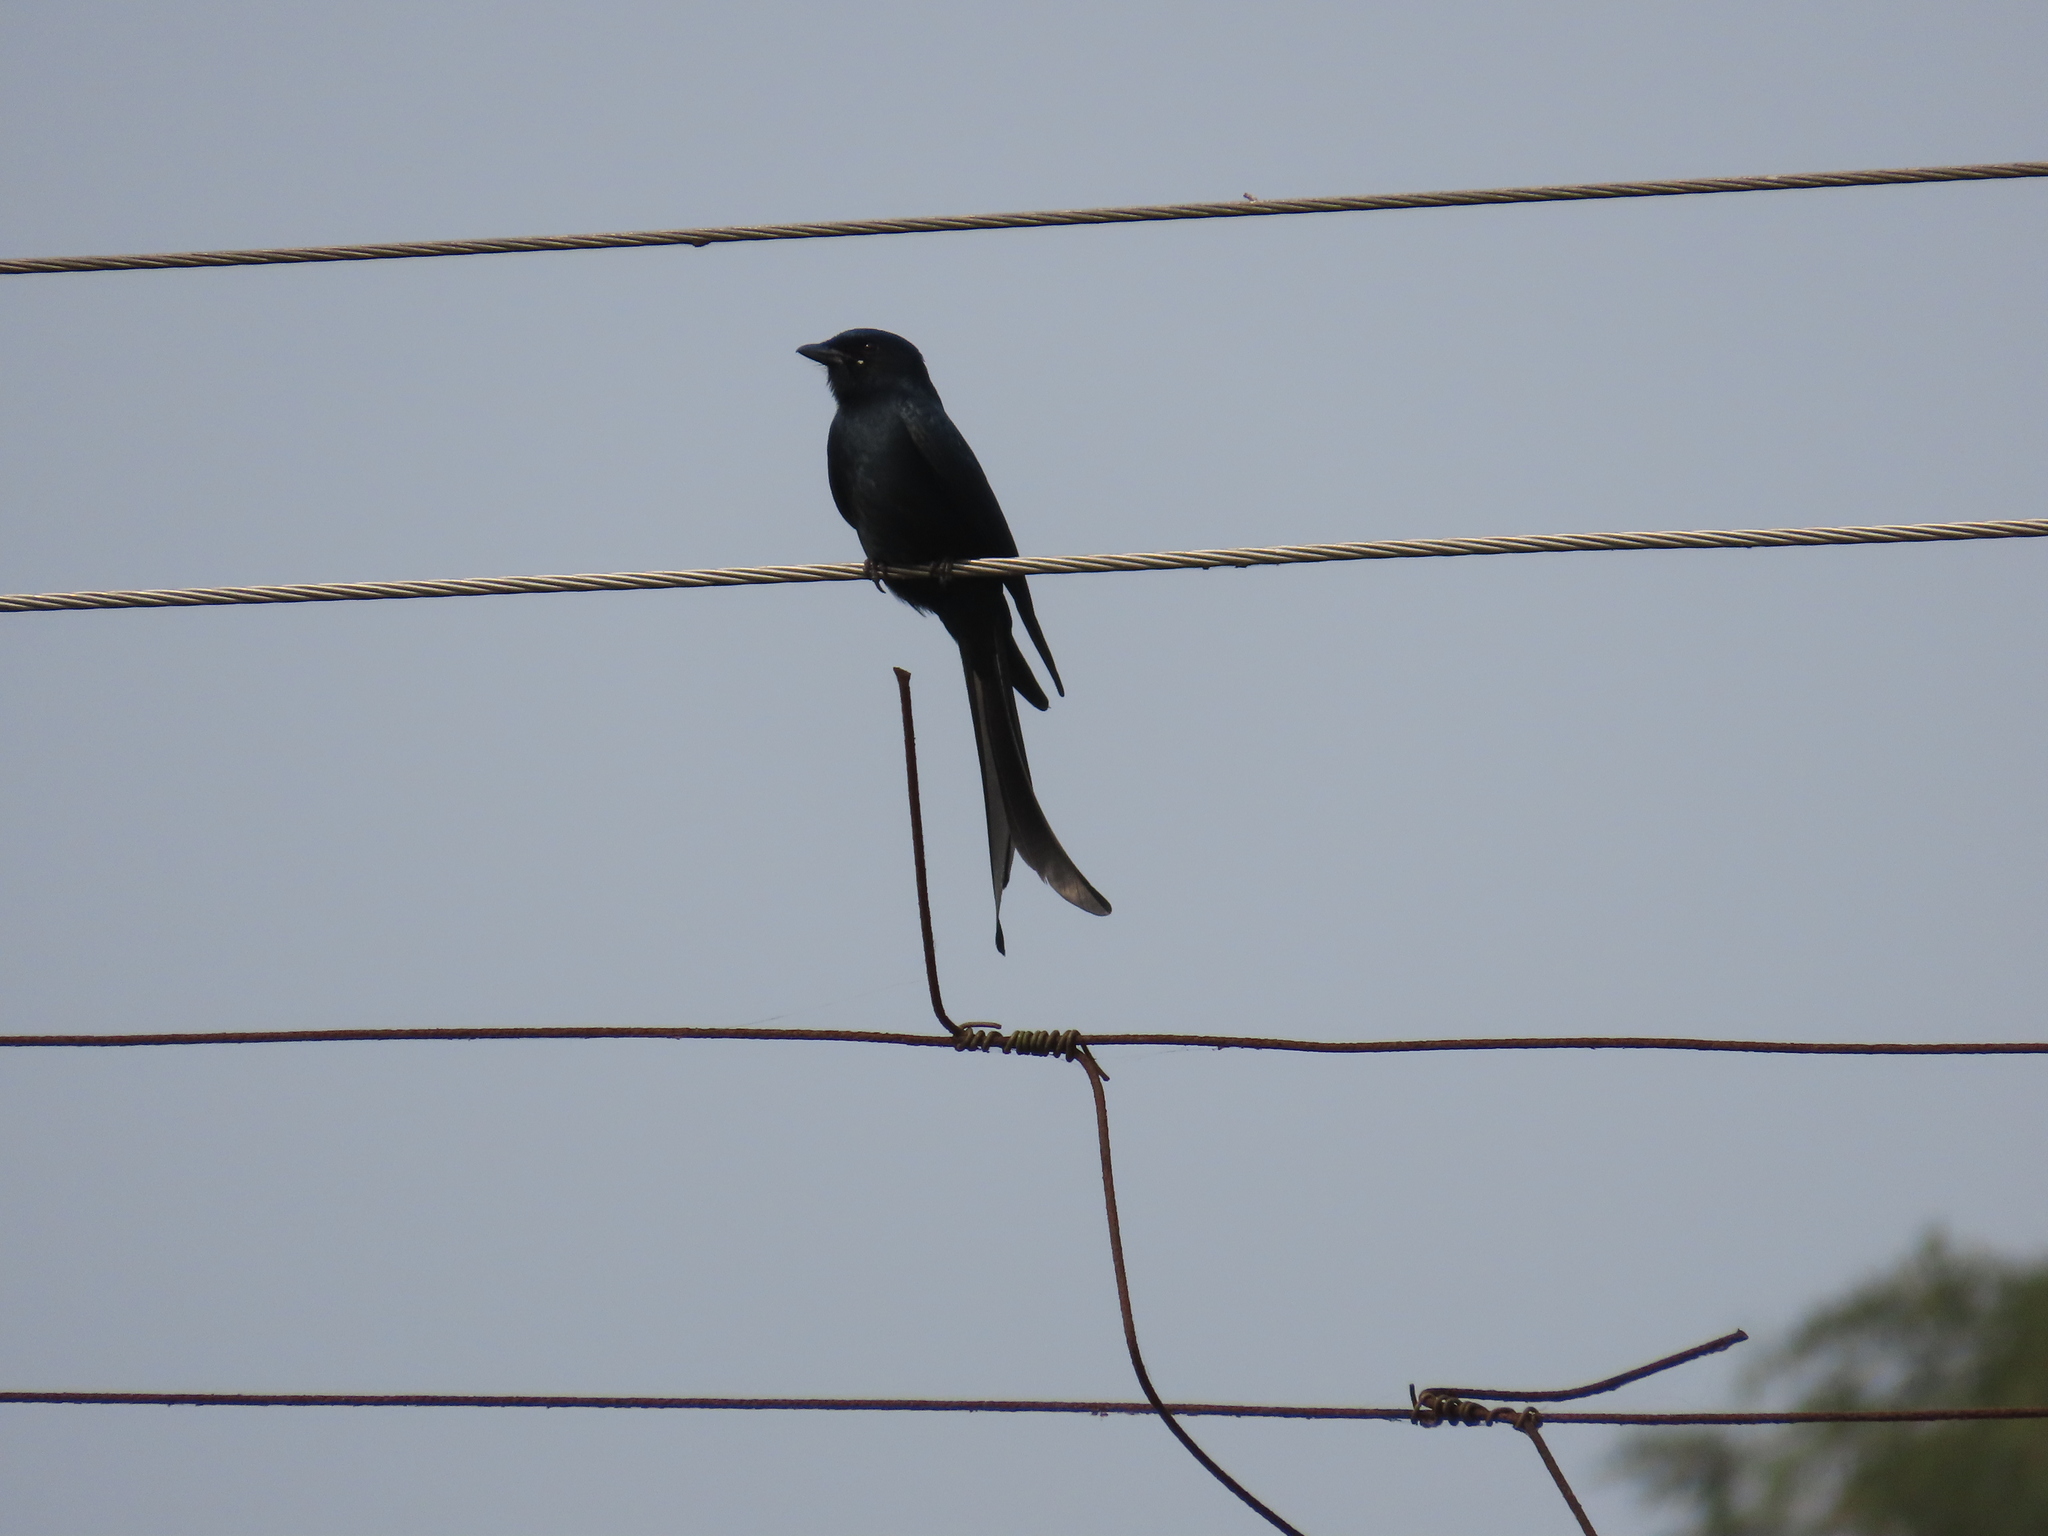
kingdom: Animalia
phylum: Chordata
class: Aves
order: Passeriformes
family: Dicruridae
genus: Dicrurus
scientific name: Dicrurus macrocercus
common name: Black drongo
